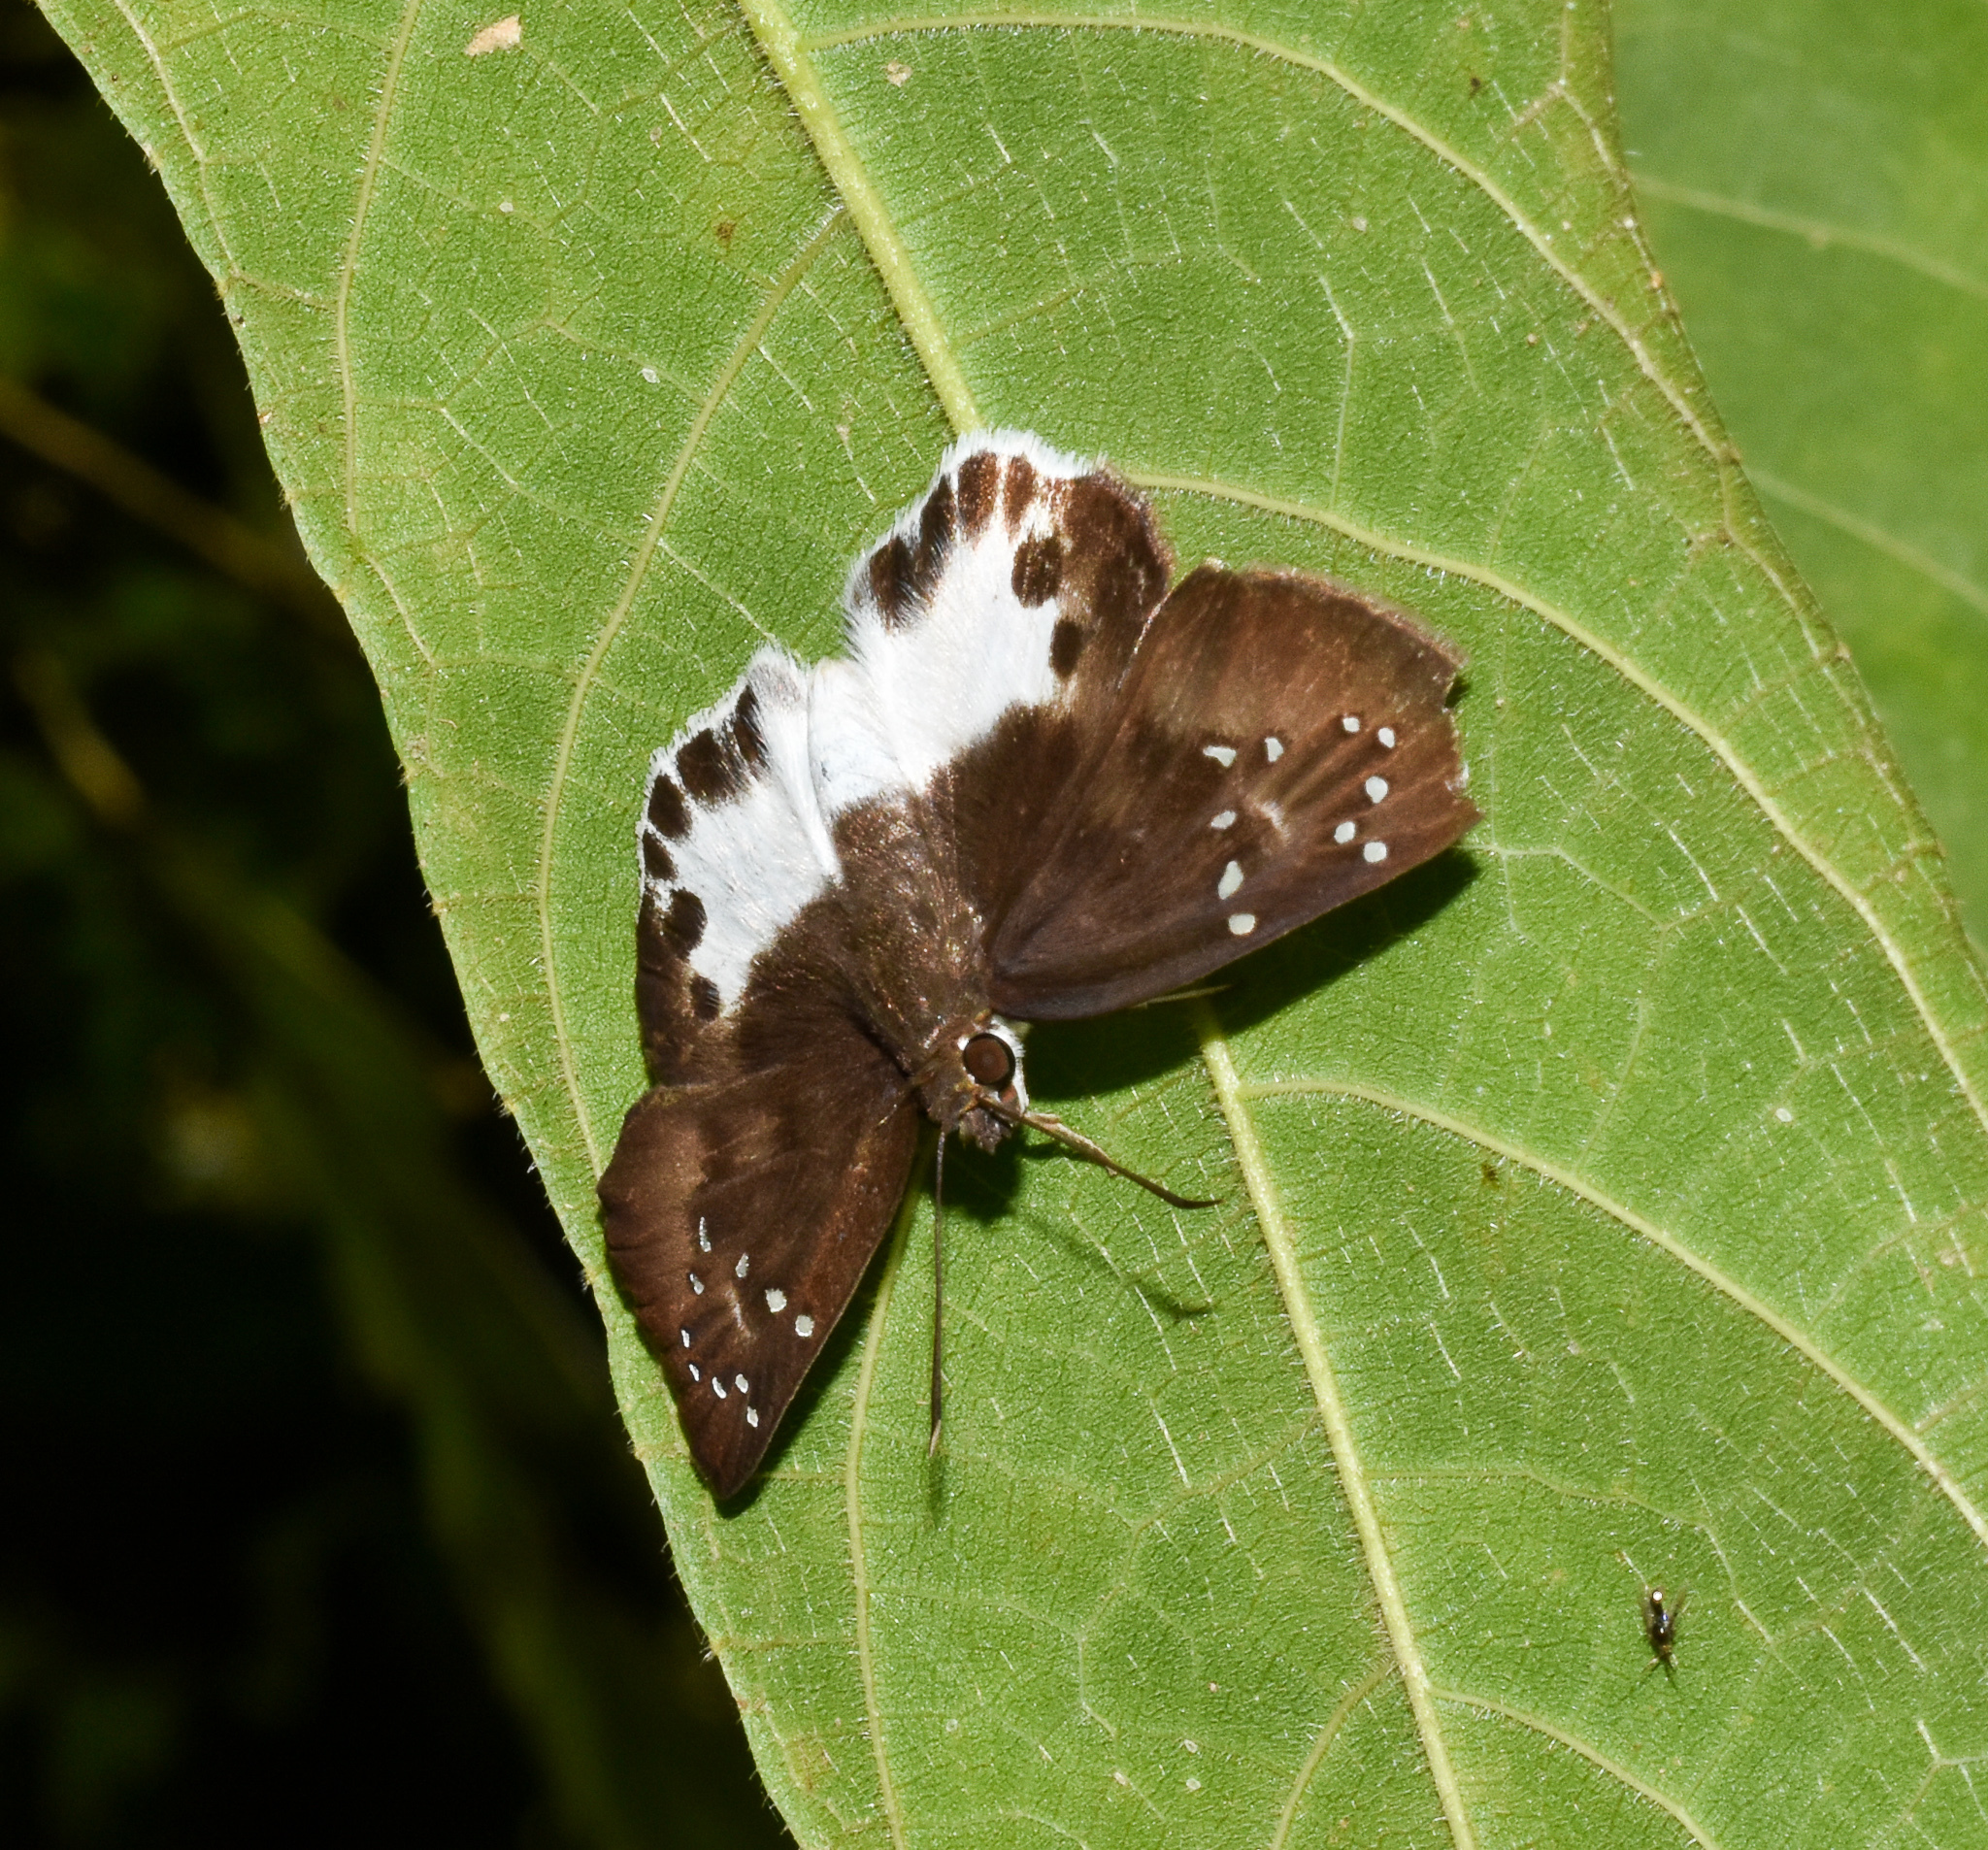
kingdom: Animalia
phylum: Arthropoda
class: Insecta
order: Lepidoptera
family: Hesperiidae
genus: Tagiades
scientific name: Tagiades litigiosa
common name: Water snow flat
